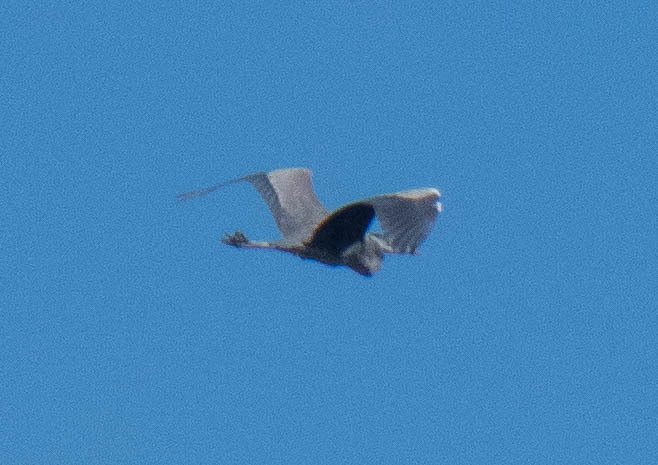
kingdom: Animalia
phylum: Chordata
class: Aves
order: Pelecaniformes
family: Ardeidae
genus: Ardea
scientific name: Ardea herodias
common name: Great blue heron
